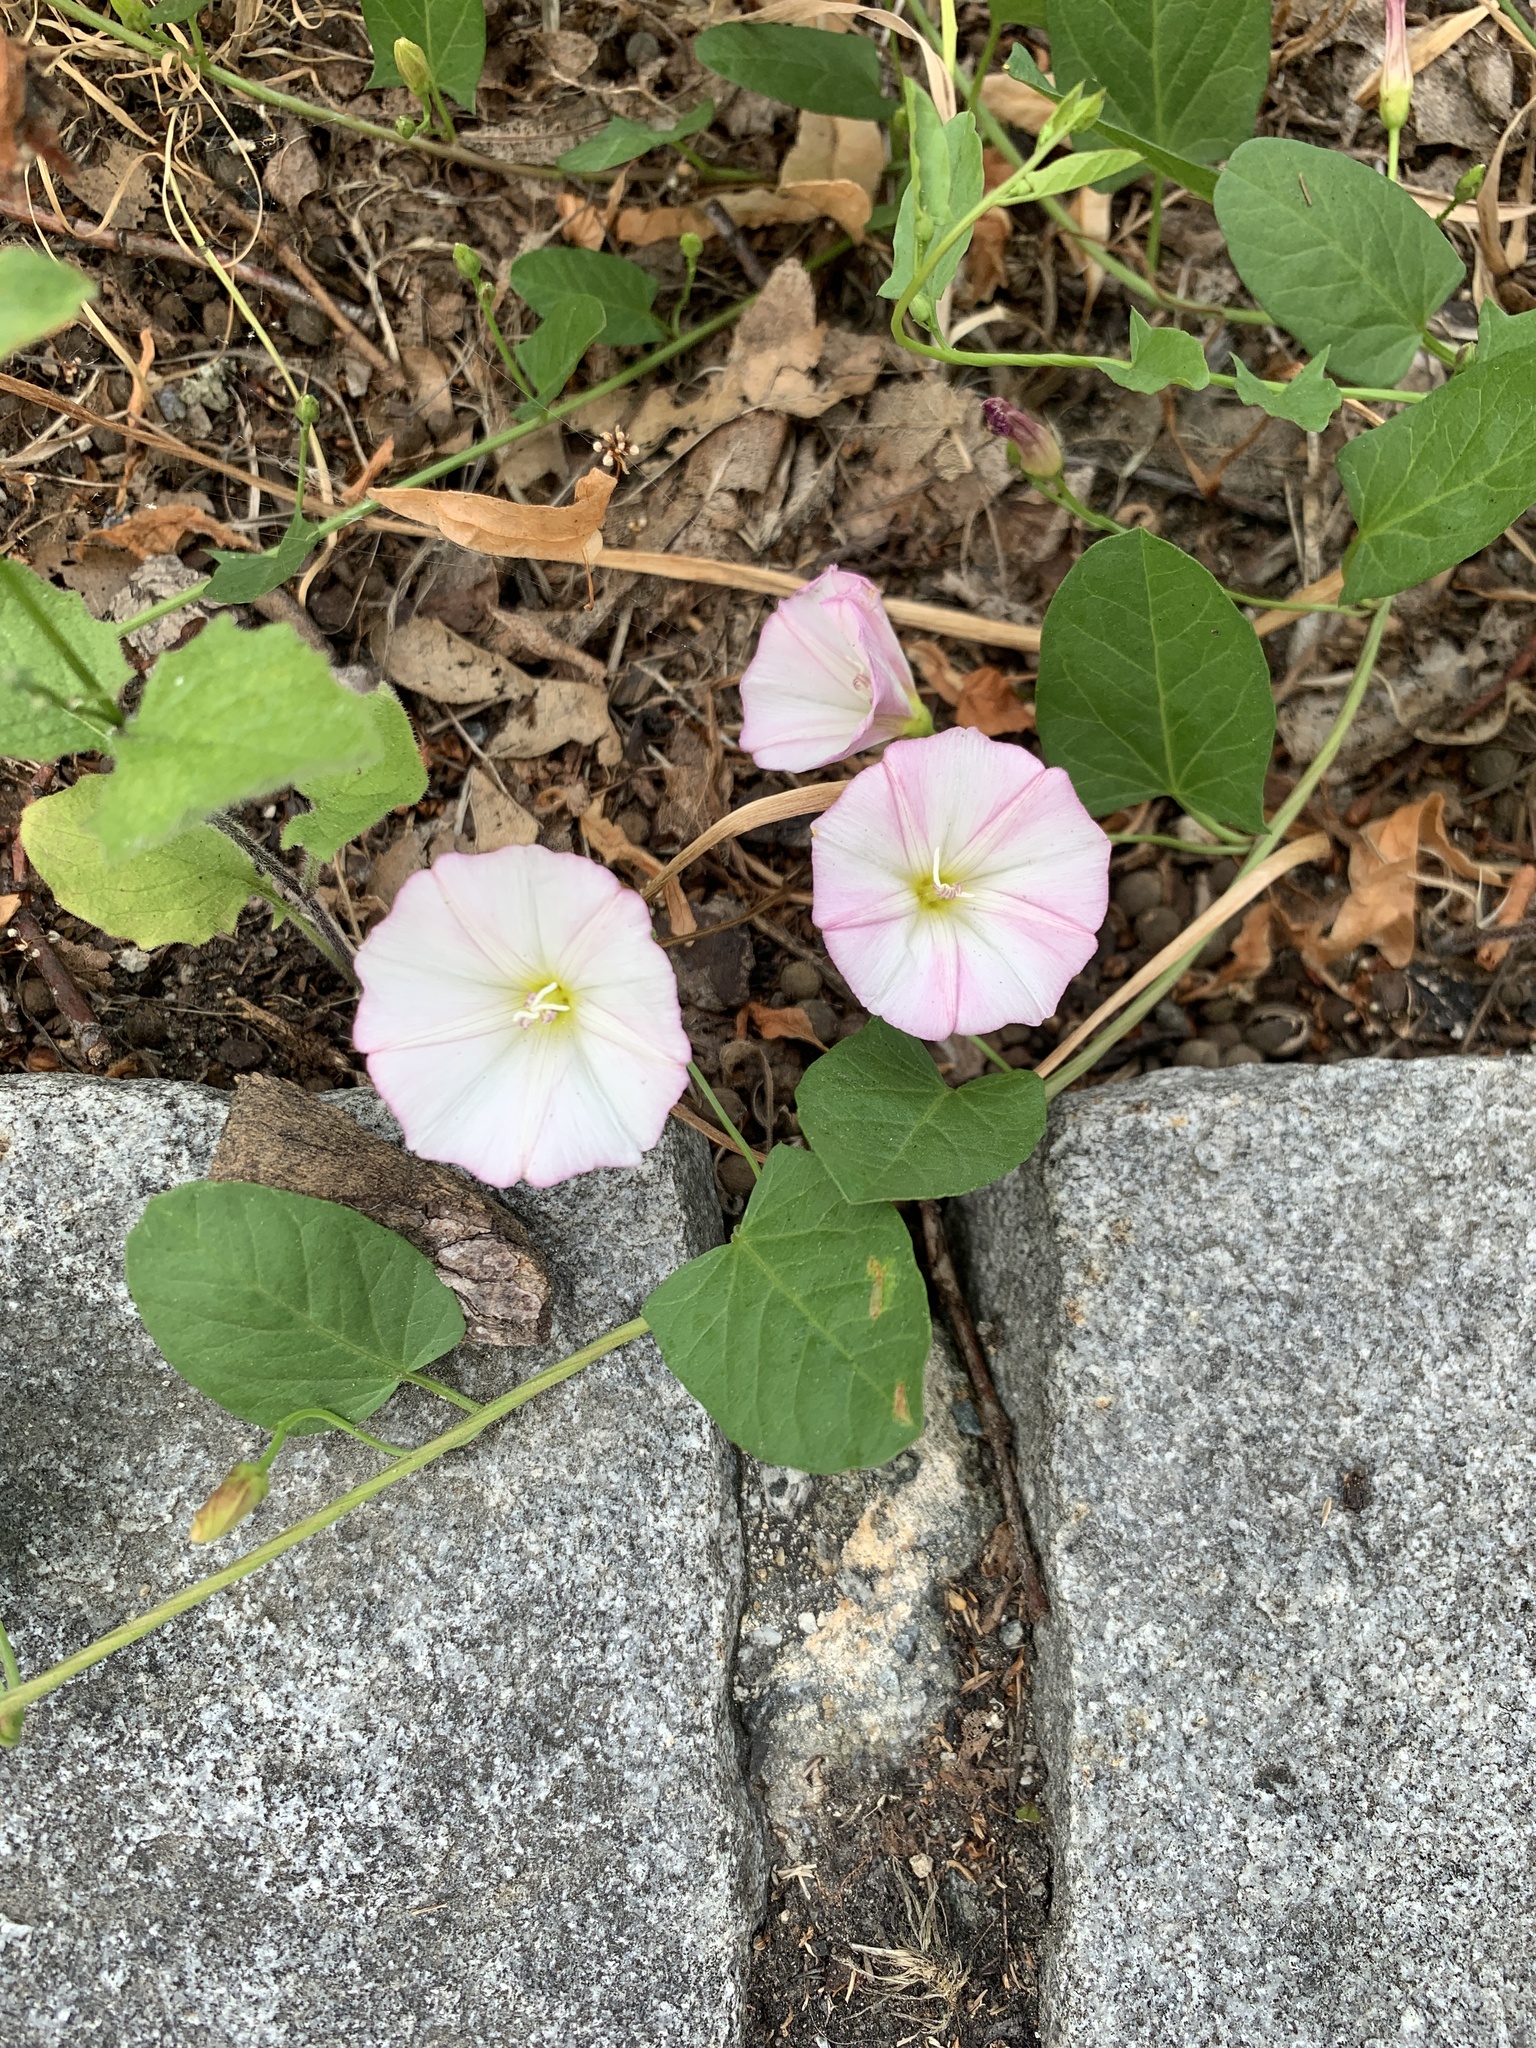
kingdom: Plantae
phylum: Tracheophyta
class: Magnoliopsida
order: Solanales
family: Convolvulaceae
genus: Convolvulus
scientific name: Convolvulus arvensis
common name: Field bindweed
